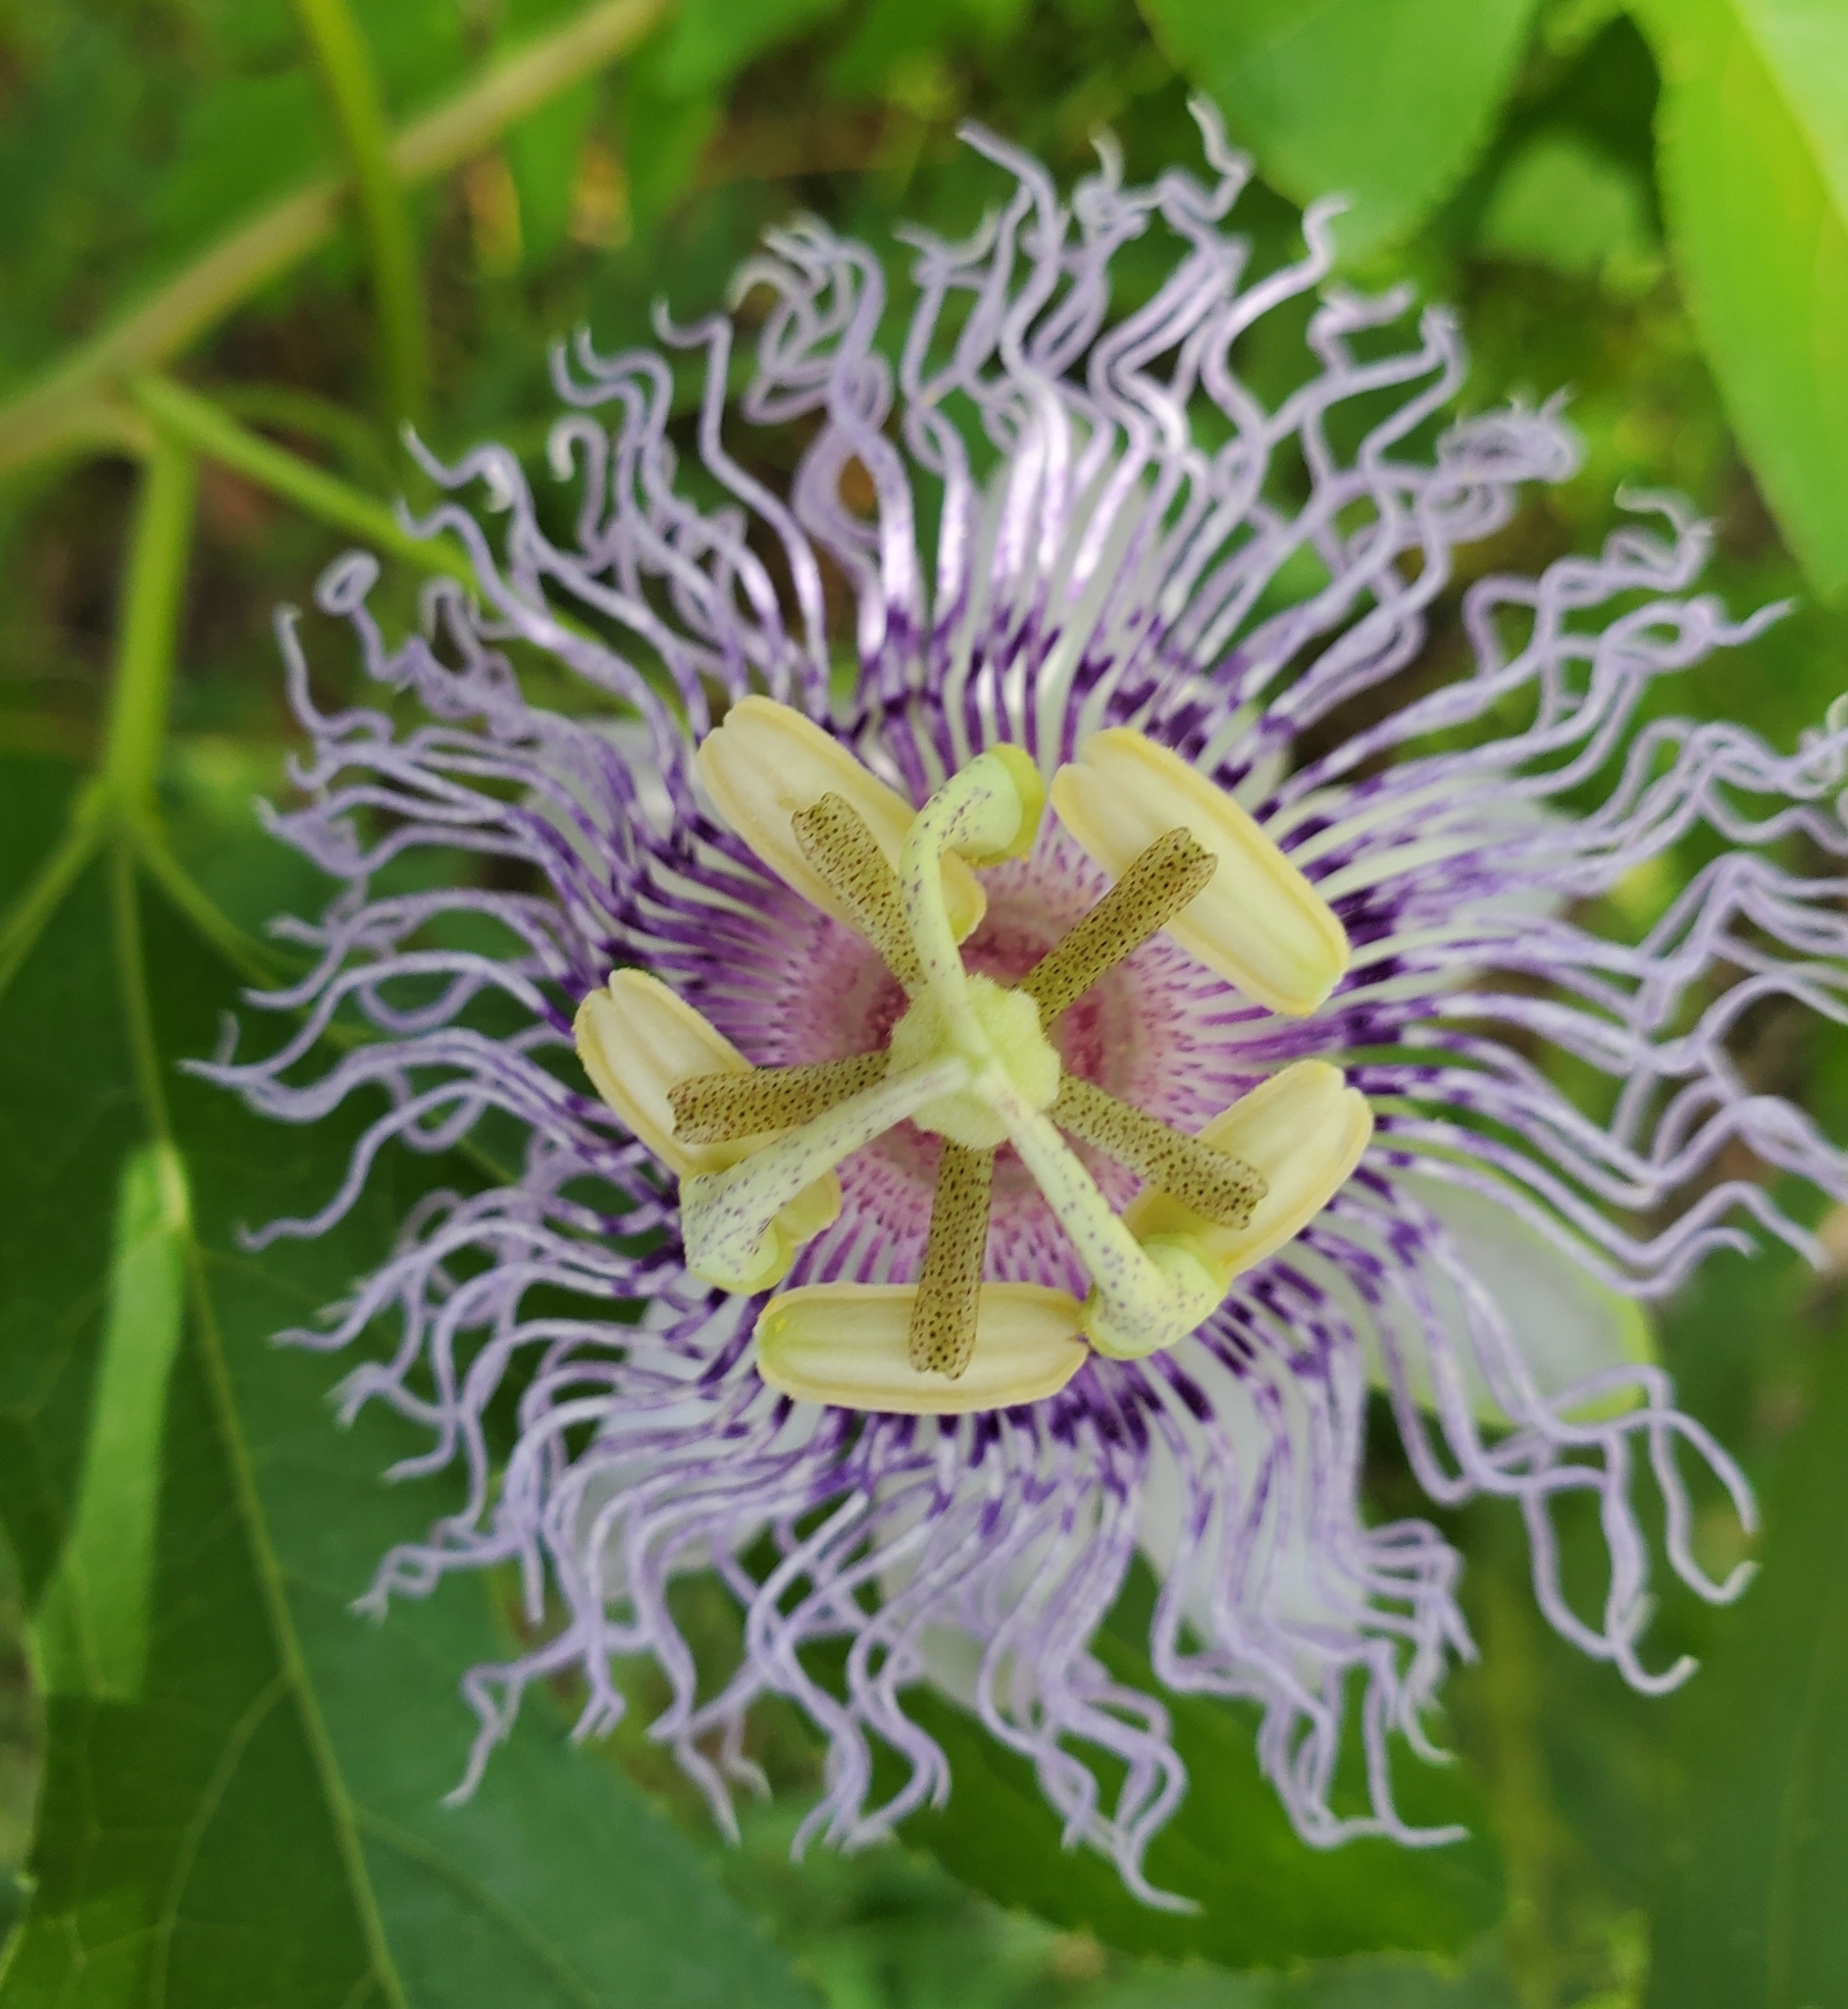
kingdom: Plantae
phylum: Tracheophyta
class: Magnoliopsida
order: Malpighiales
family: Passifloraceae
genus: Passiflora
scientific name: Passiflora incarnata
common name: Apricot-vine
